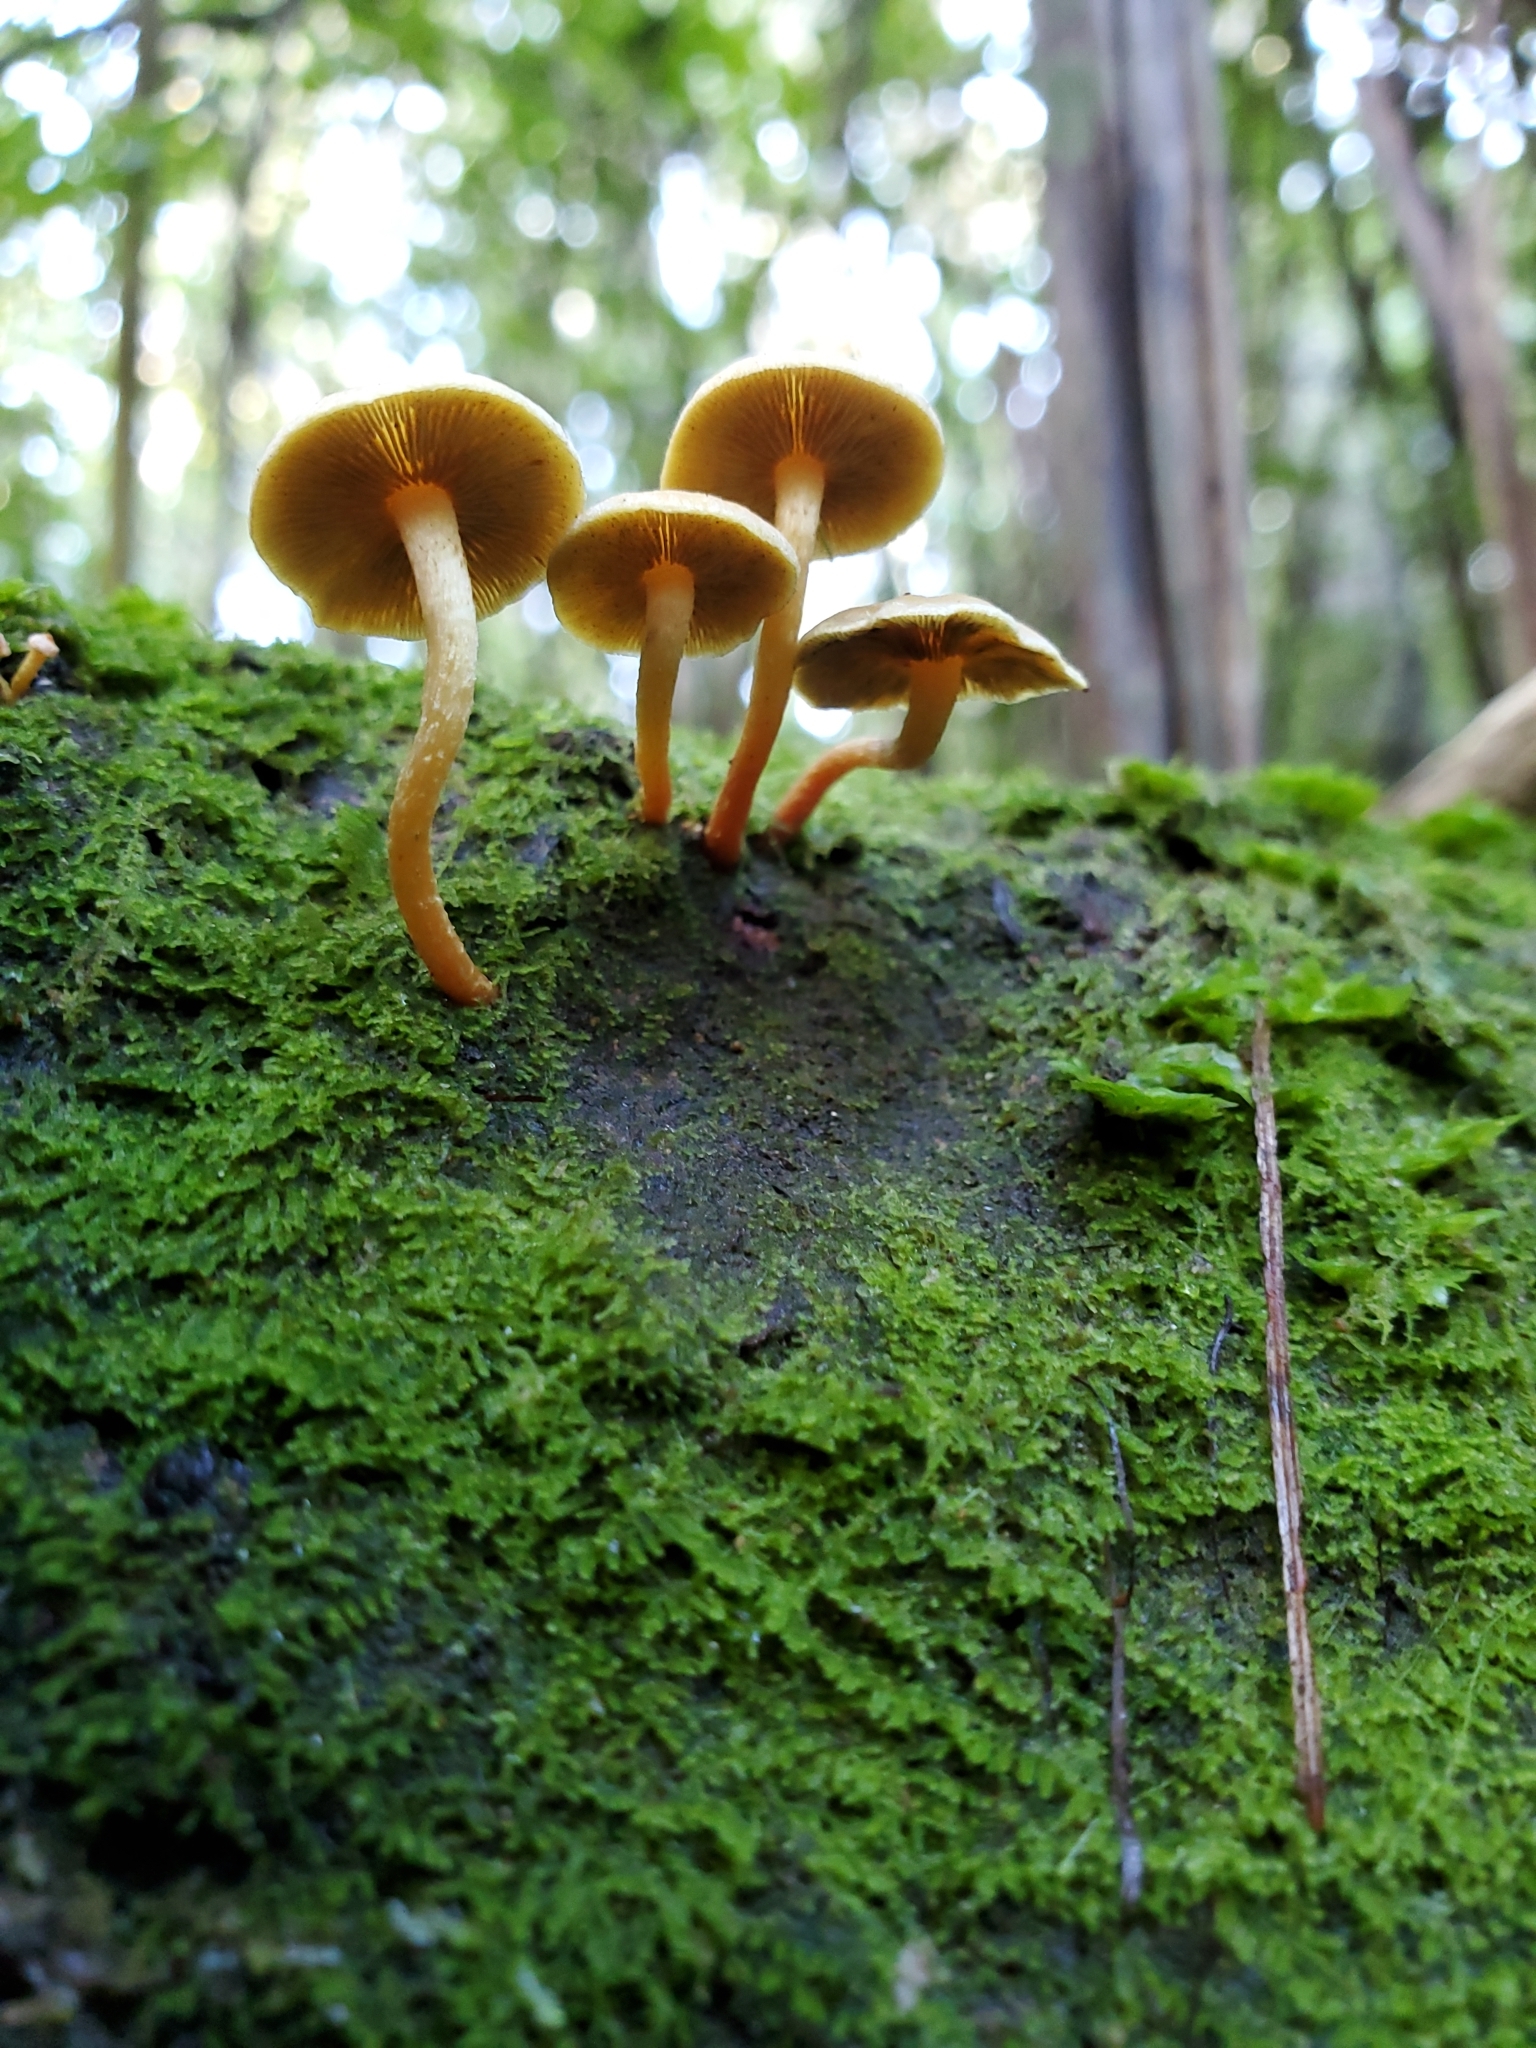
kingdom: Fungi
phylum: Basidiomycota
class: Agaricomycetes
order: Agaricales
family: Strophariaceae
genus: Hypholoma
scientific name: Hypholoma acutum
